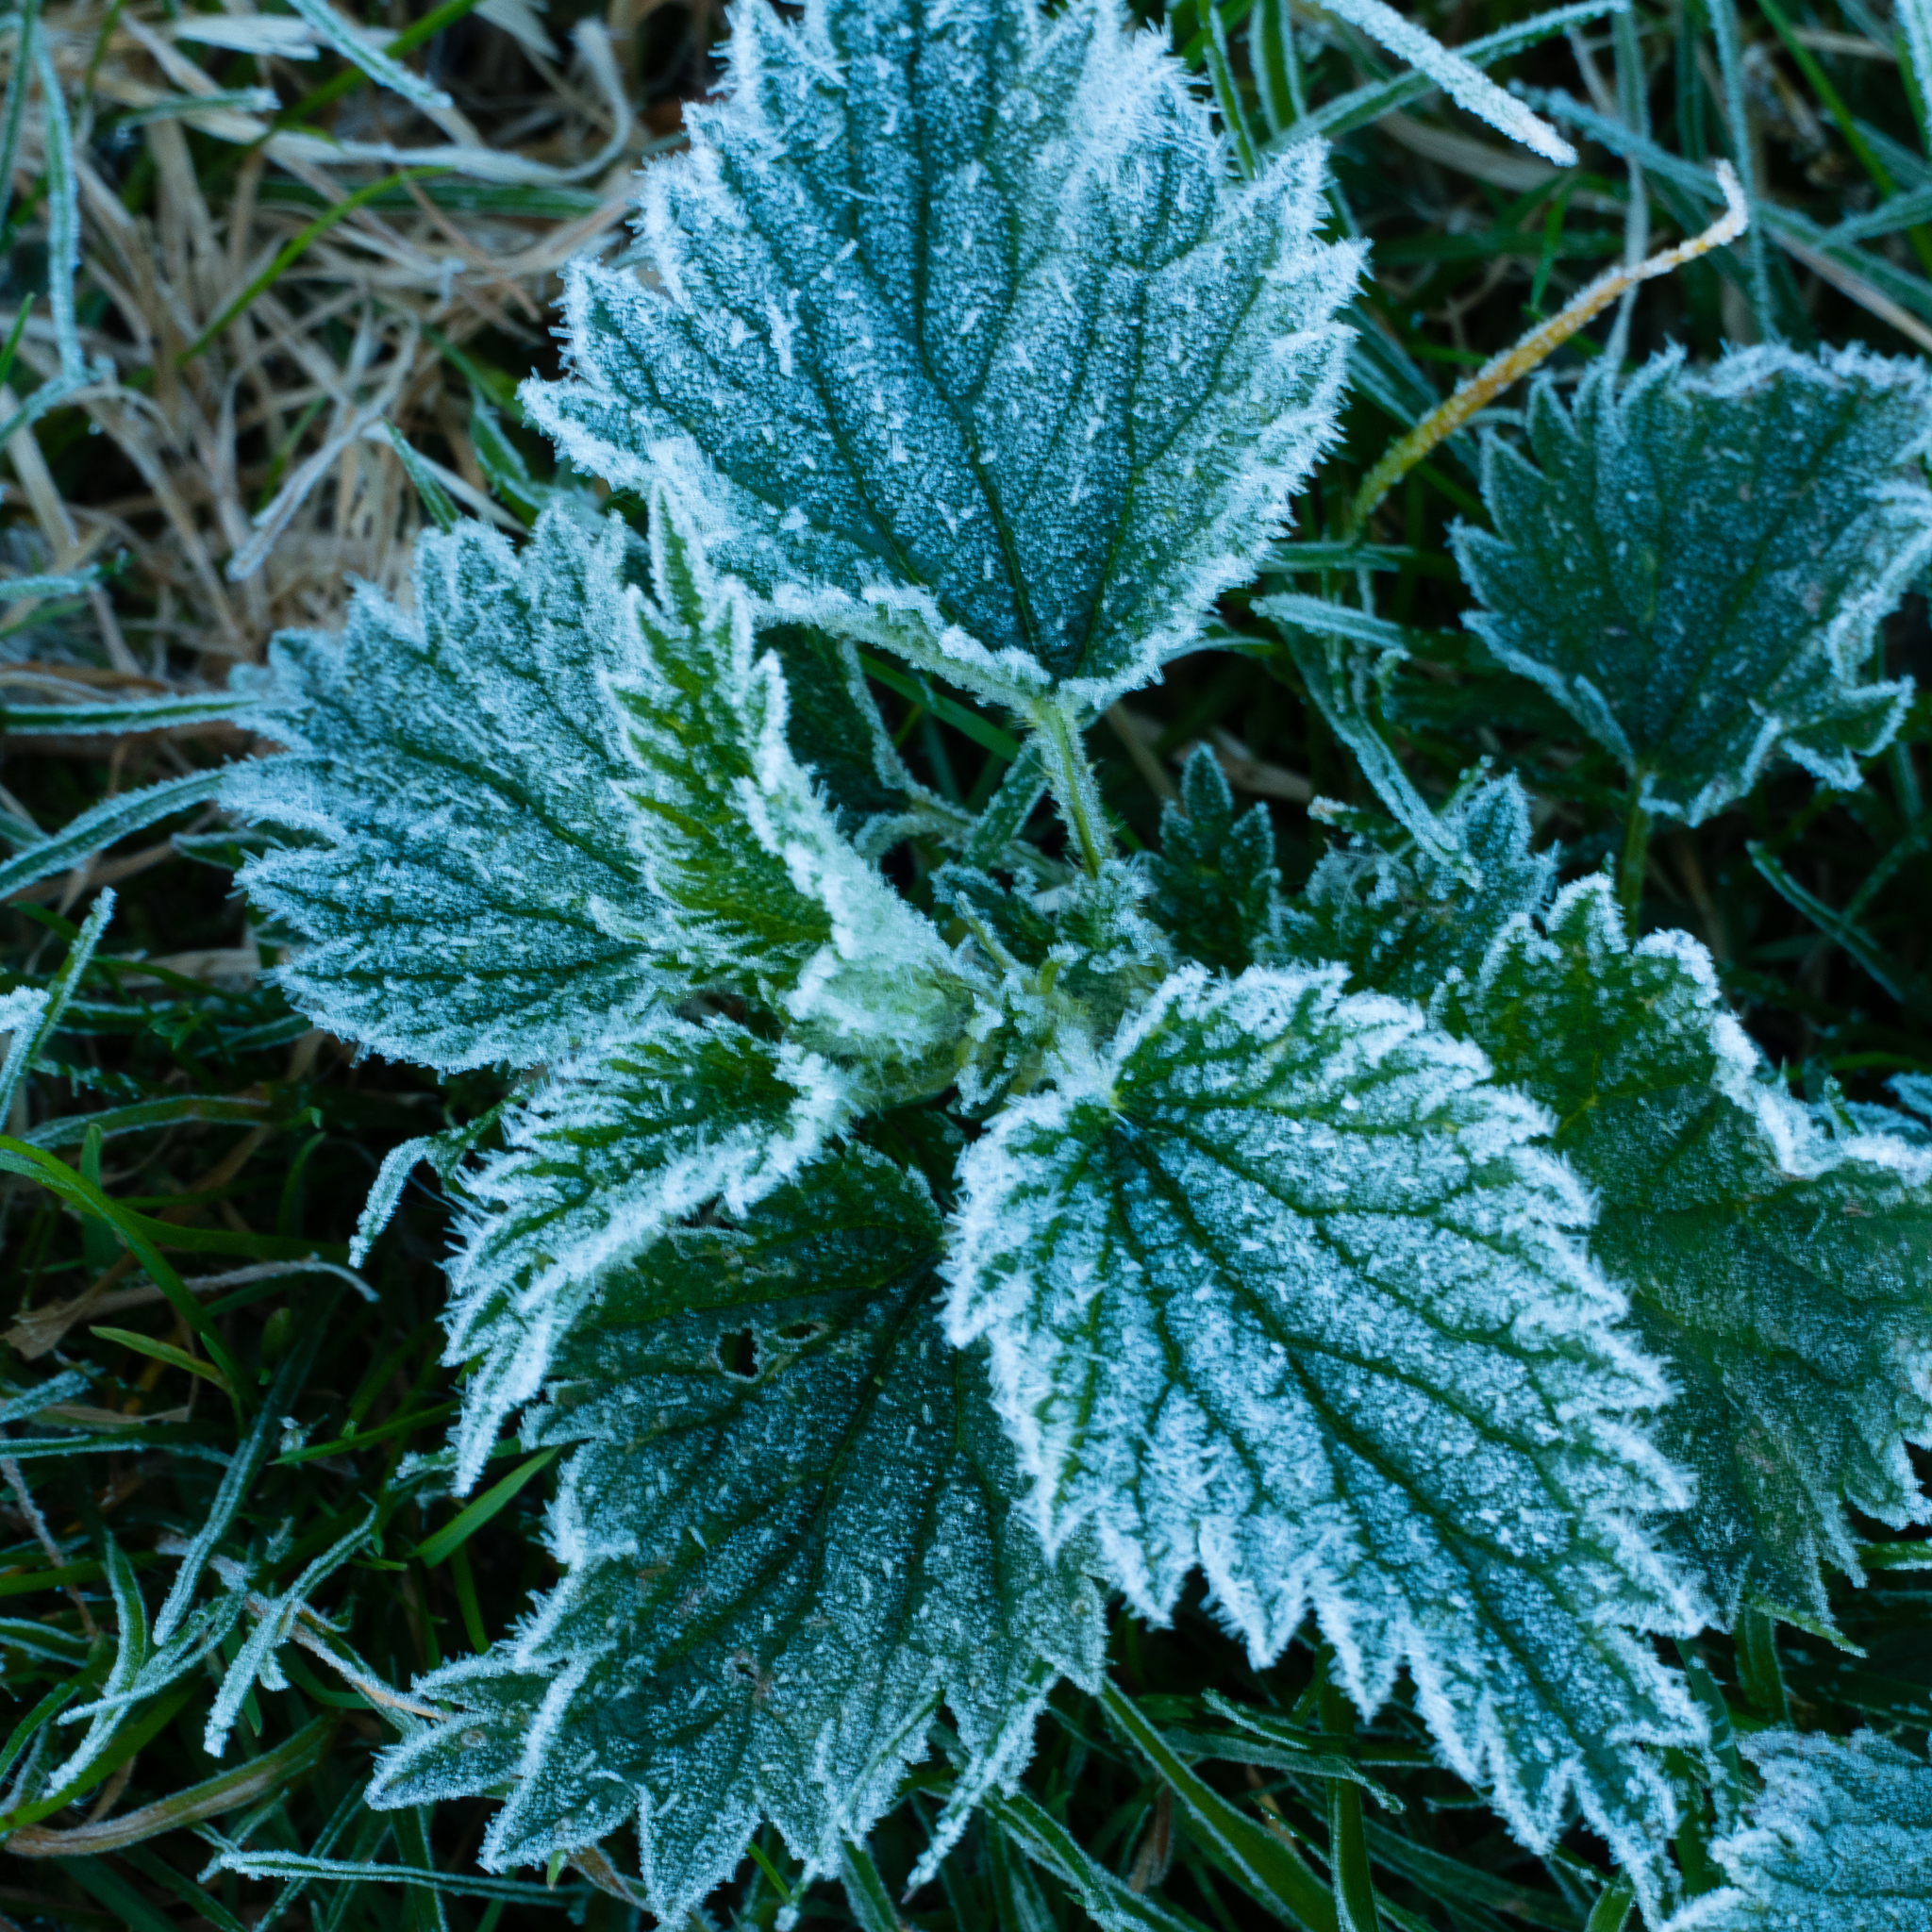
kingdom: Plantae
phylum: Tracheophyta
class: Magnoliopsida
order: Rosales
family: Urticaceae
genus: Urtica
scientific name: Urtica dioica
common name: Common nettle
